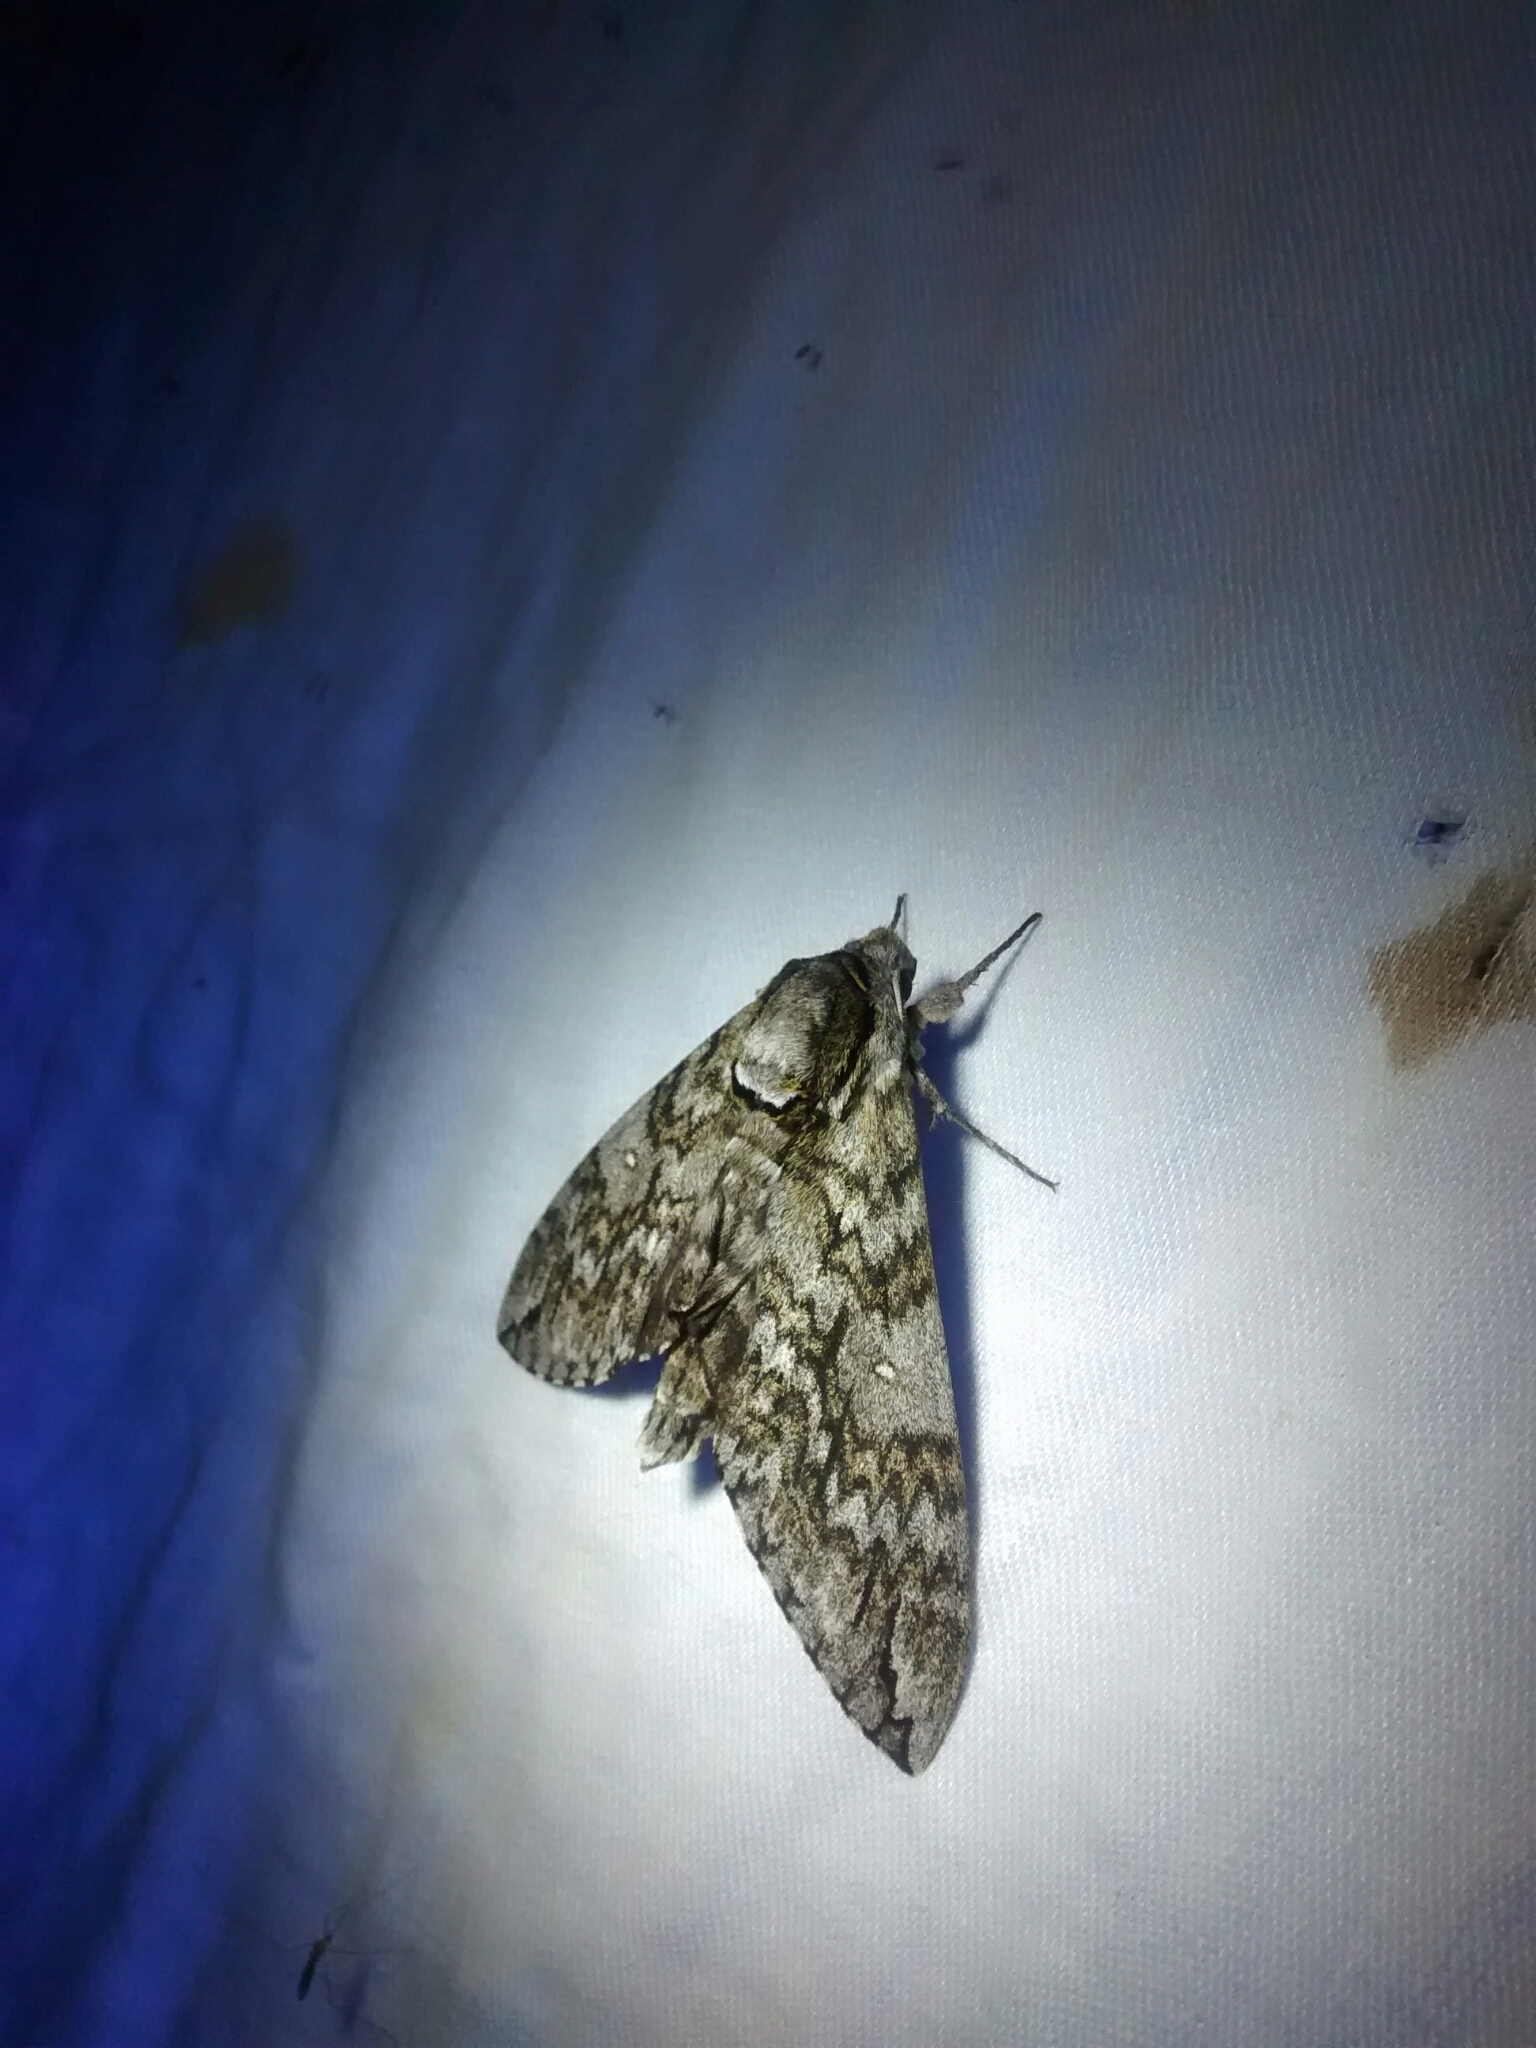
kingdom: Animalia
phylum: Arthropoda
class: Insecta
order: Lepidoptera
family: Sphingidae
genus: Ceratomia
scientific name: Ceratomia undulosa
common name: Waved sphinx
